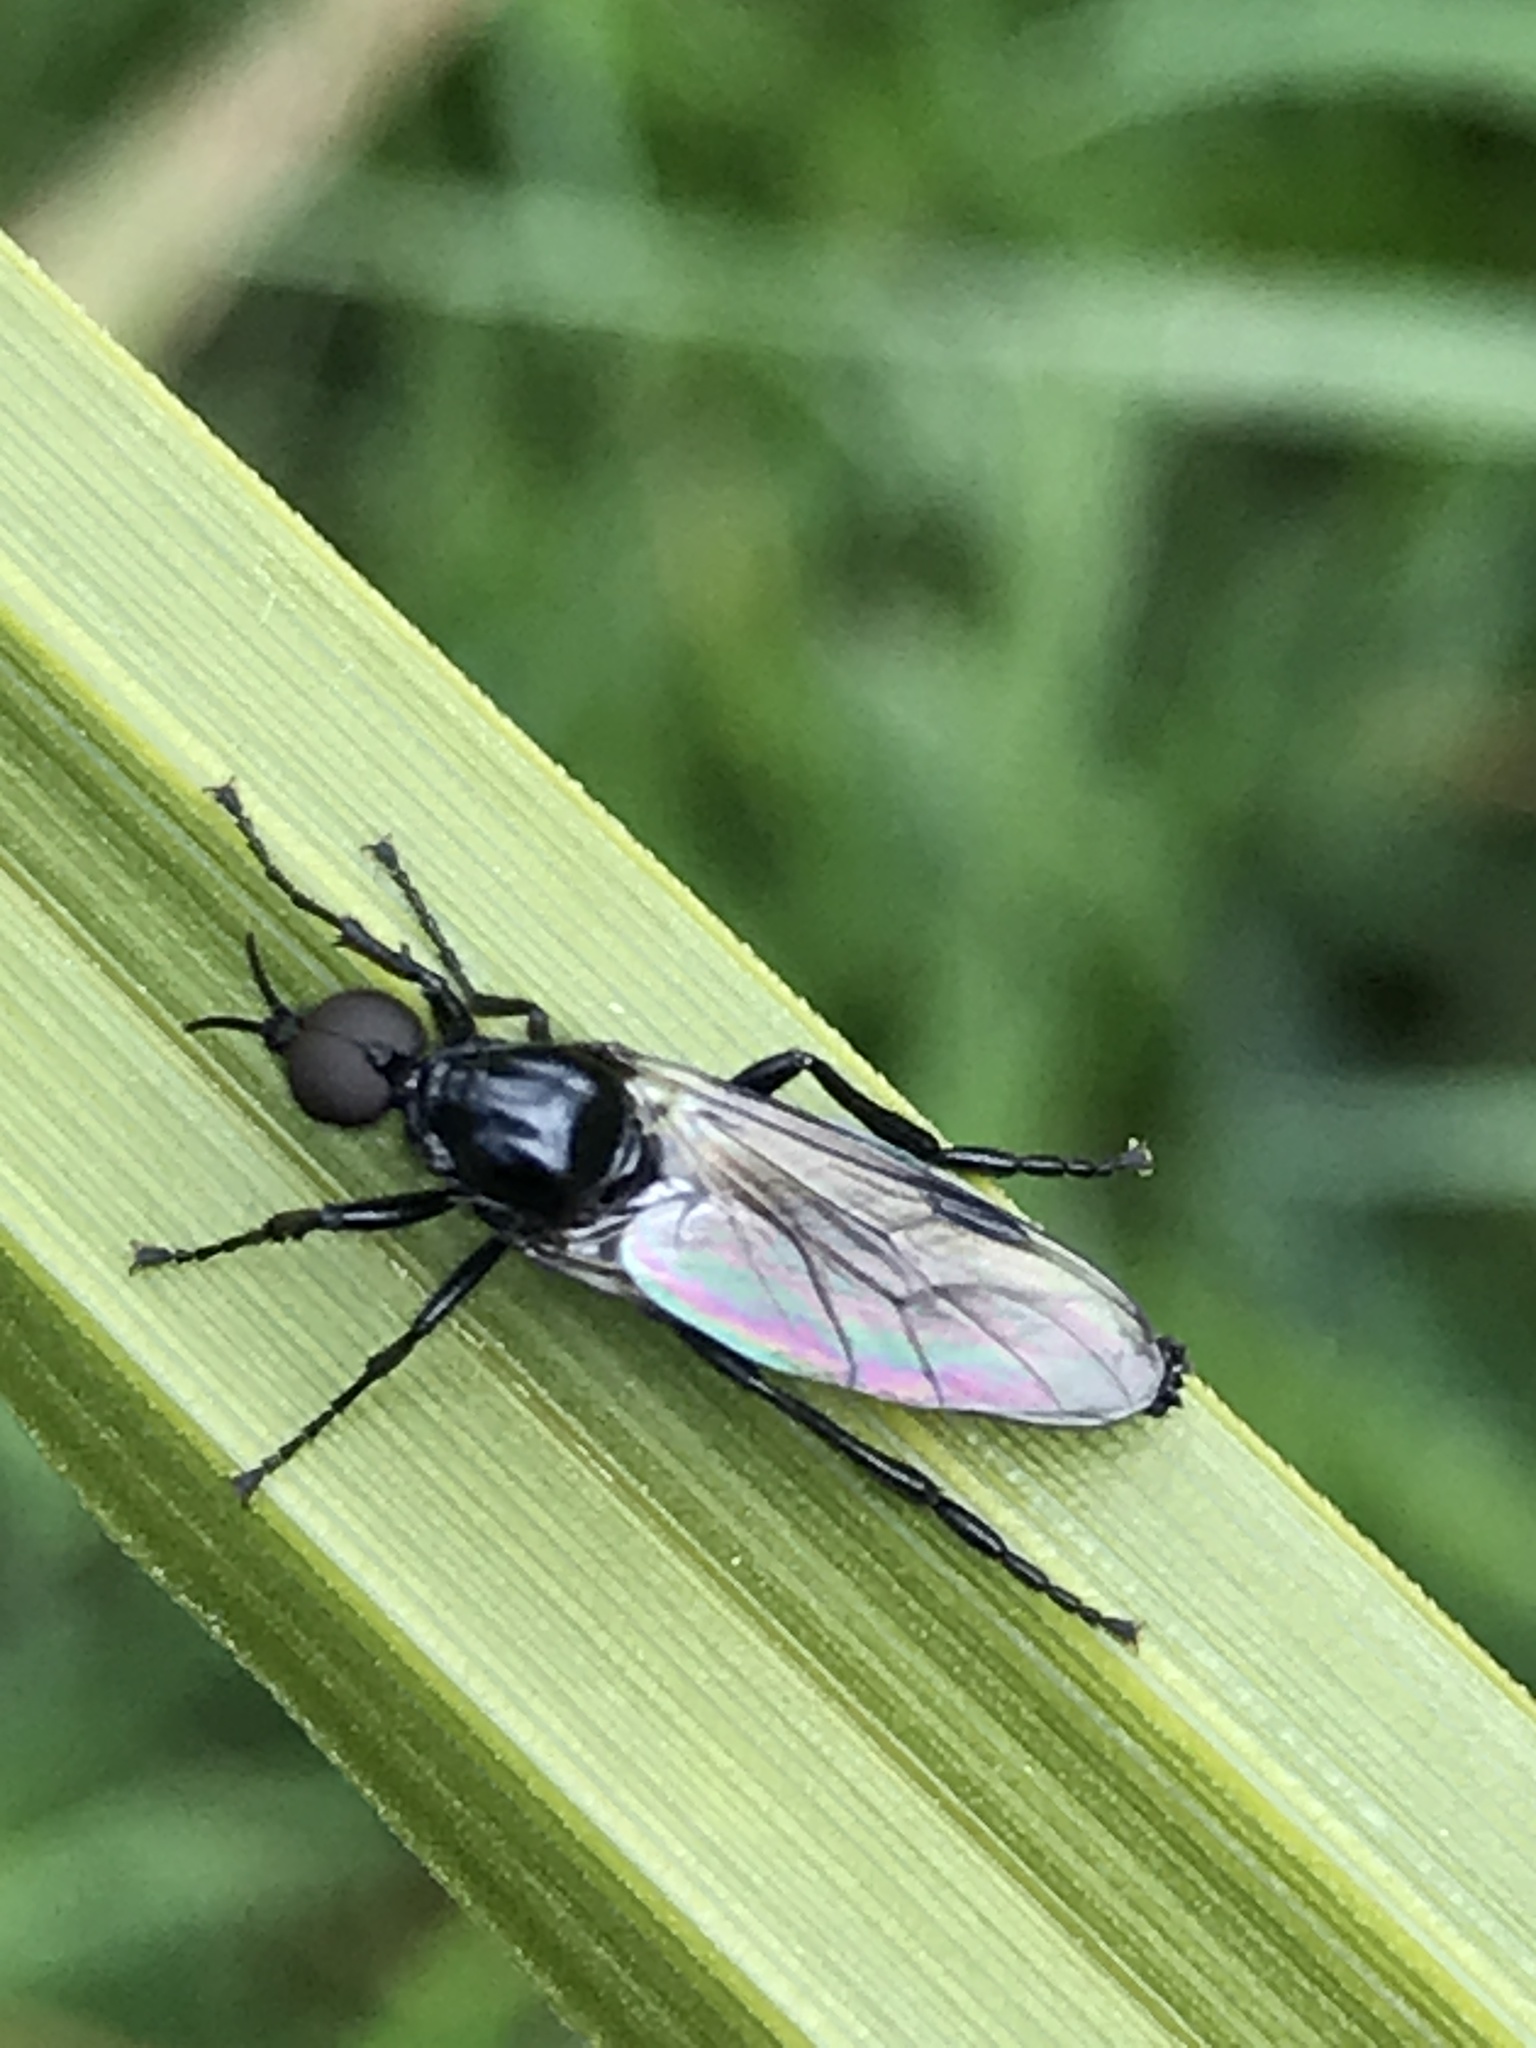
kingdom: Animalia
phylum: Arthropoda
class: Insecta
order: Diptera
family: Bibionidae
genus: Dilophus
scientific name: Dilophus nigrostigma
